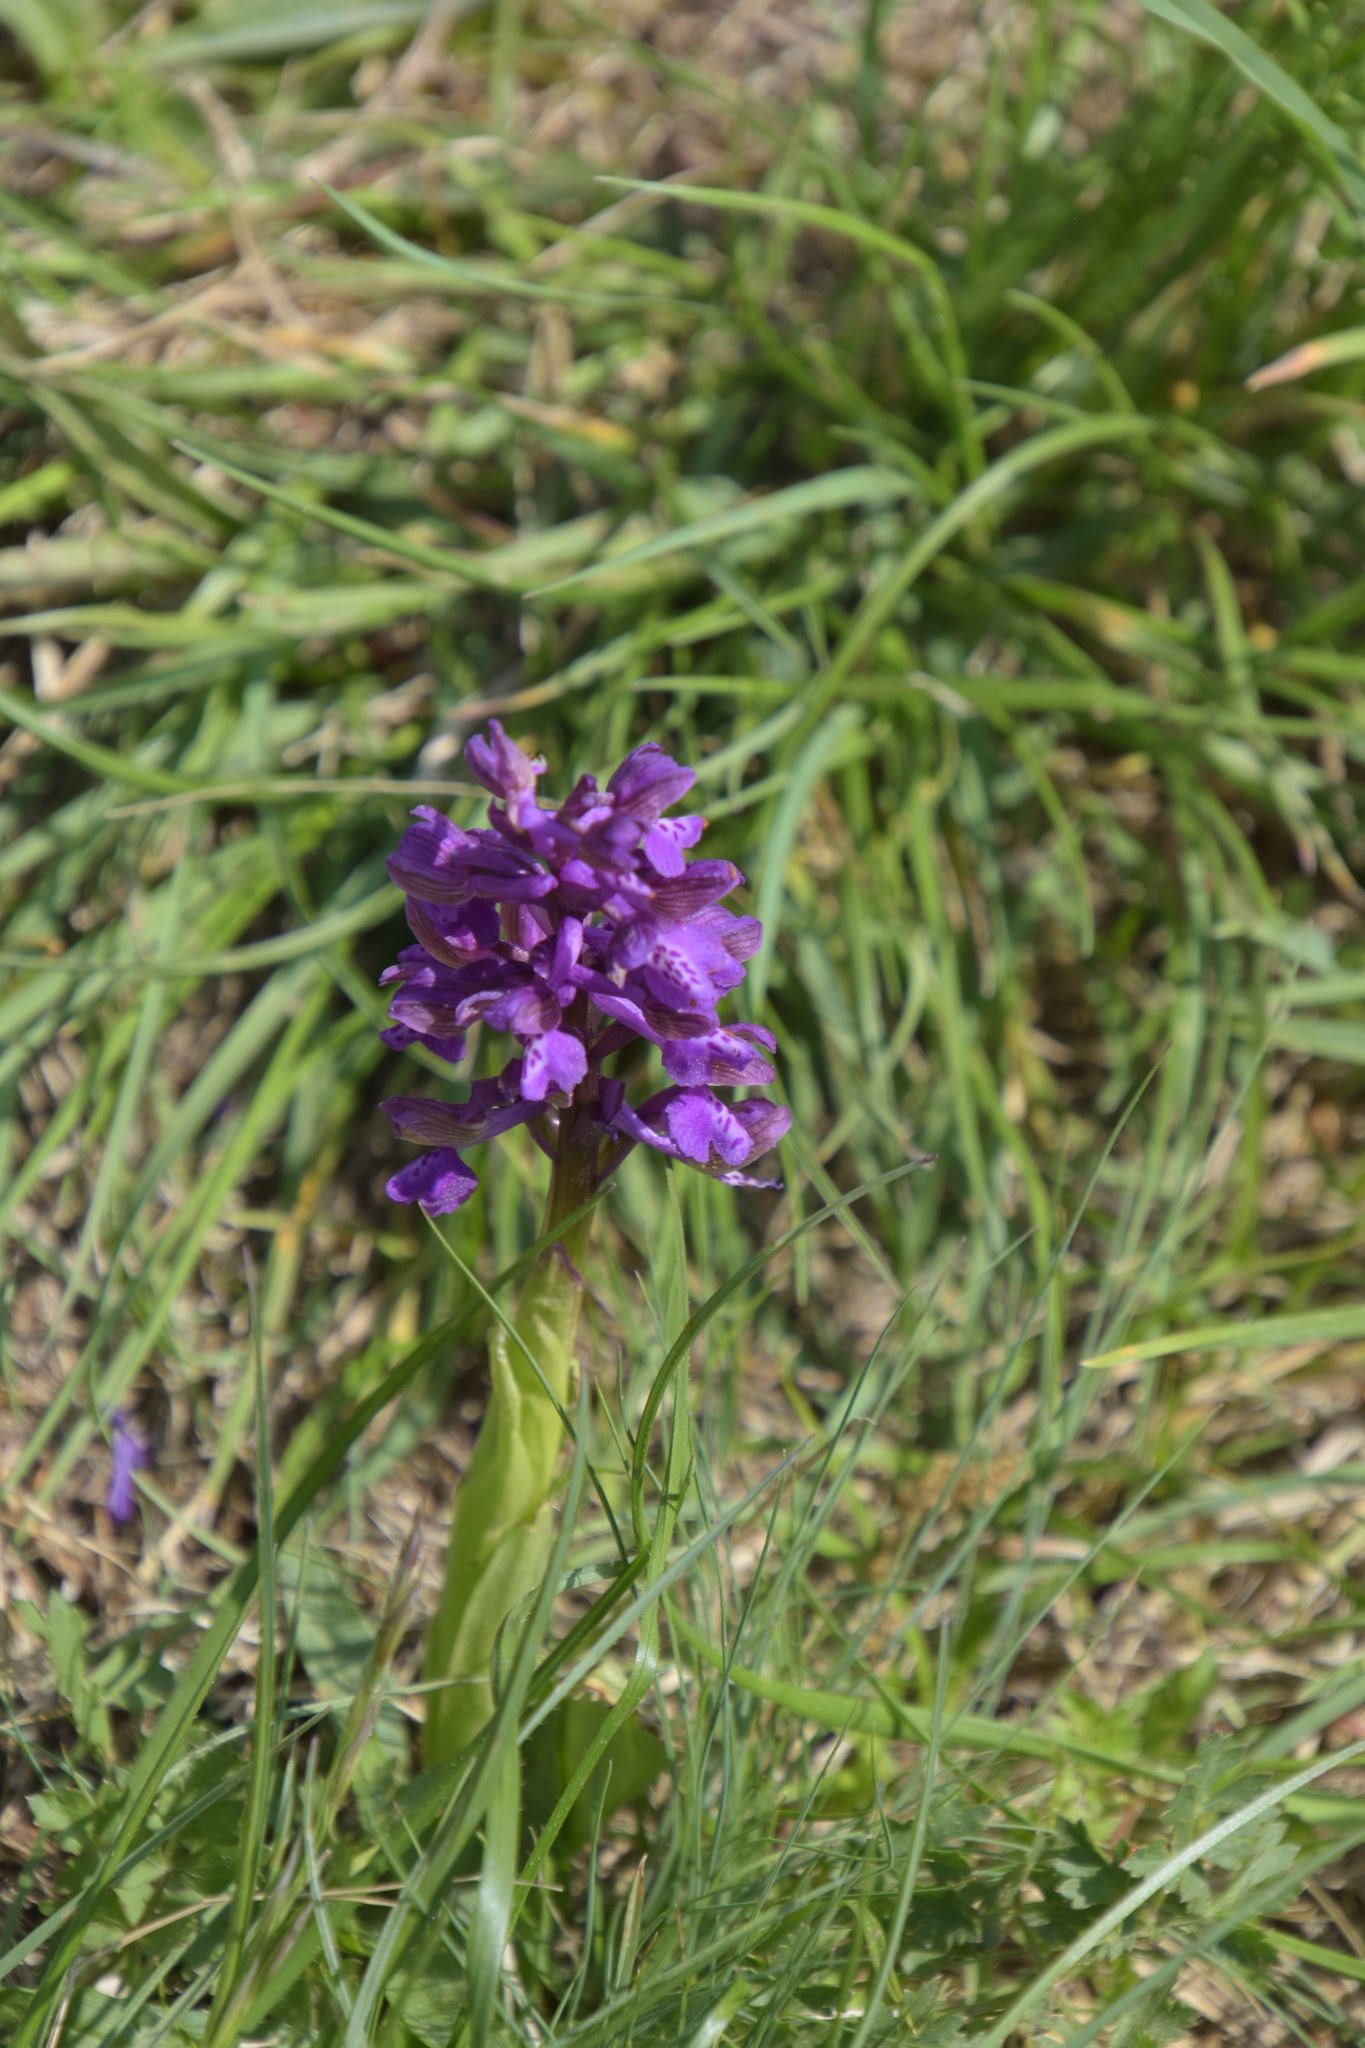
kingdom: Plantae
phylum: Tracheophyta
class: Liliopsida
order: Asparagales
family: Orchidaceae
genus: Anacamptis
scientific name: Anacamptis morio
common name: Green-winged orchid
